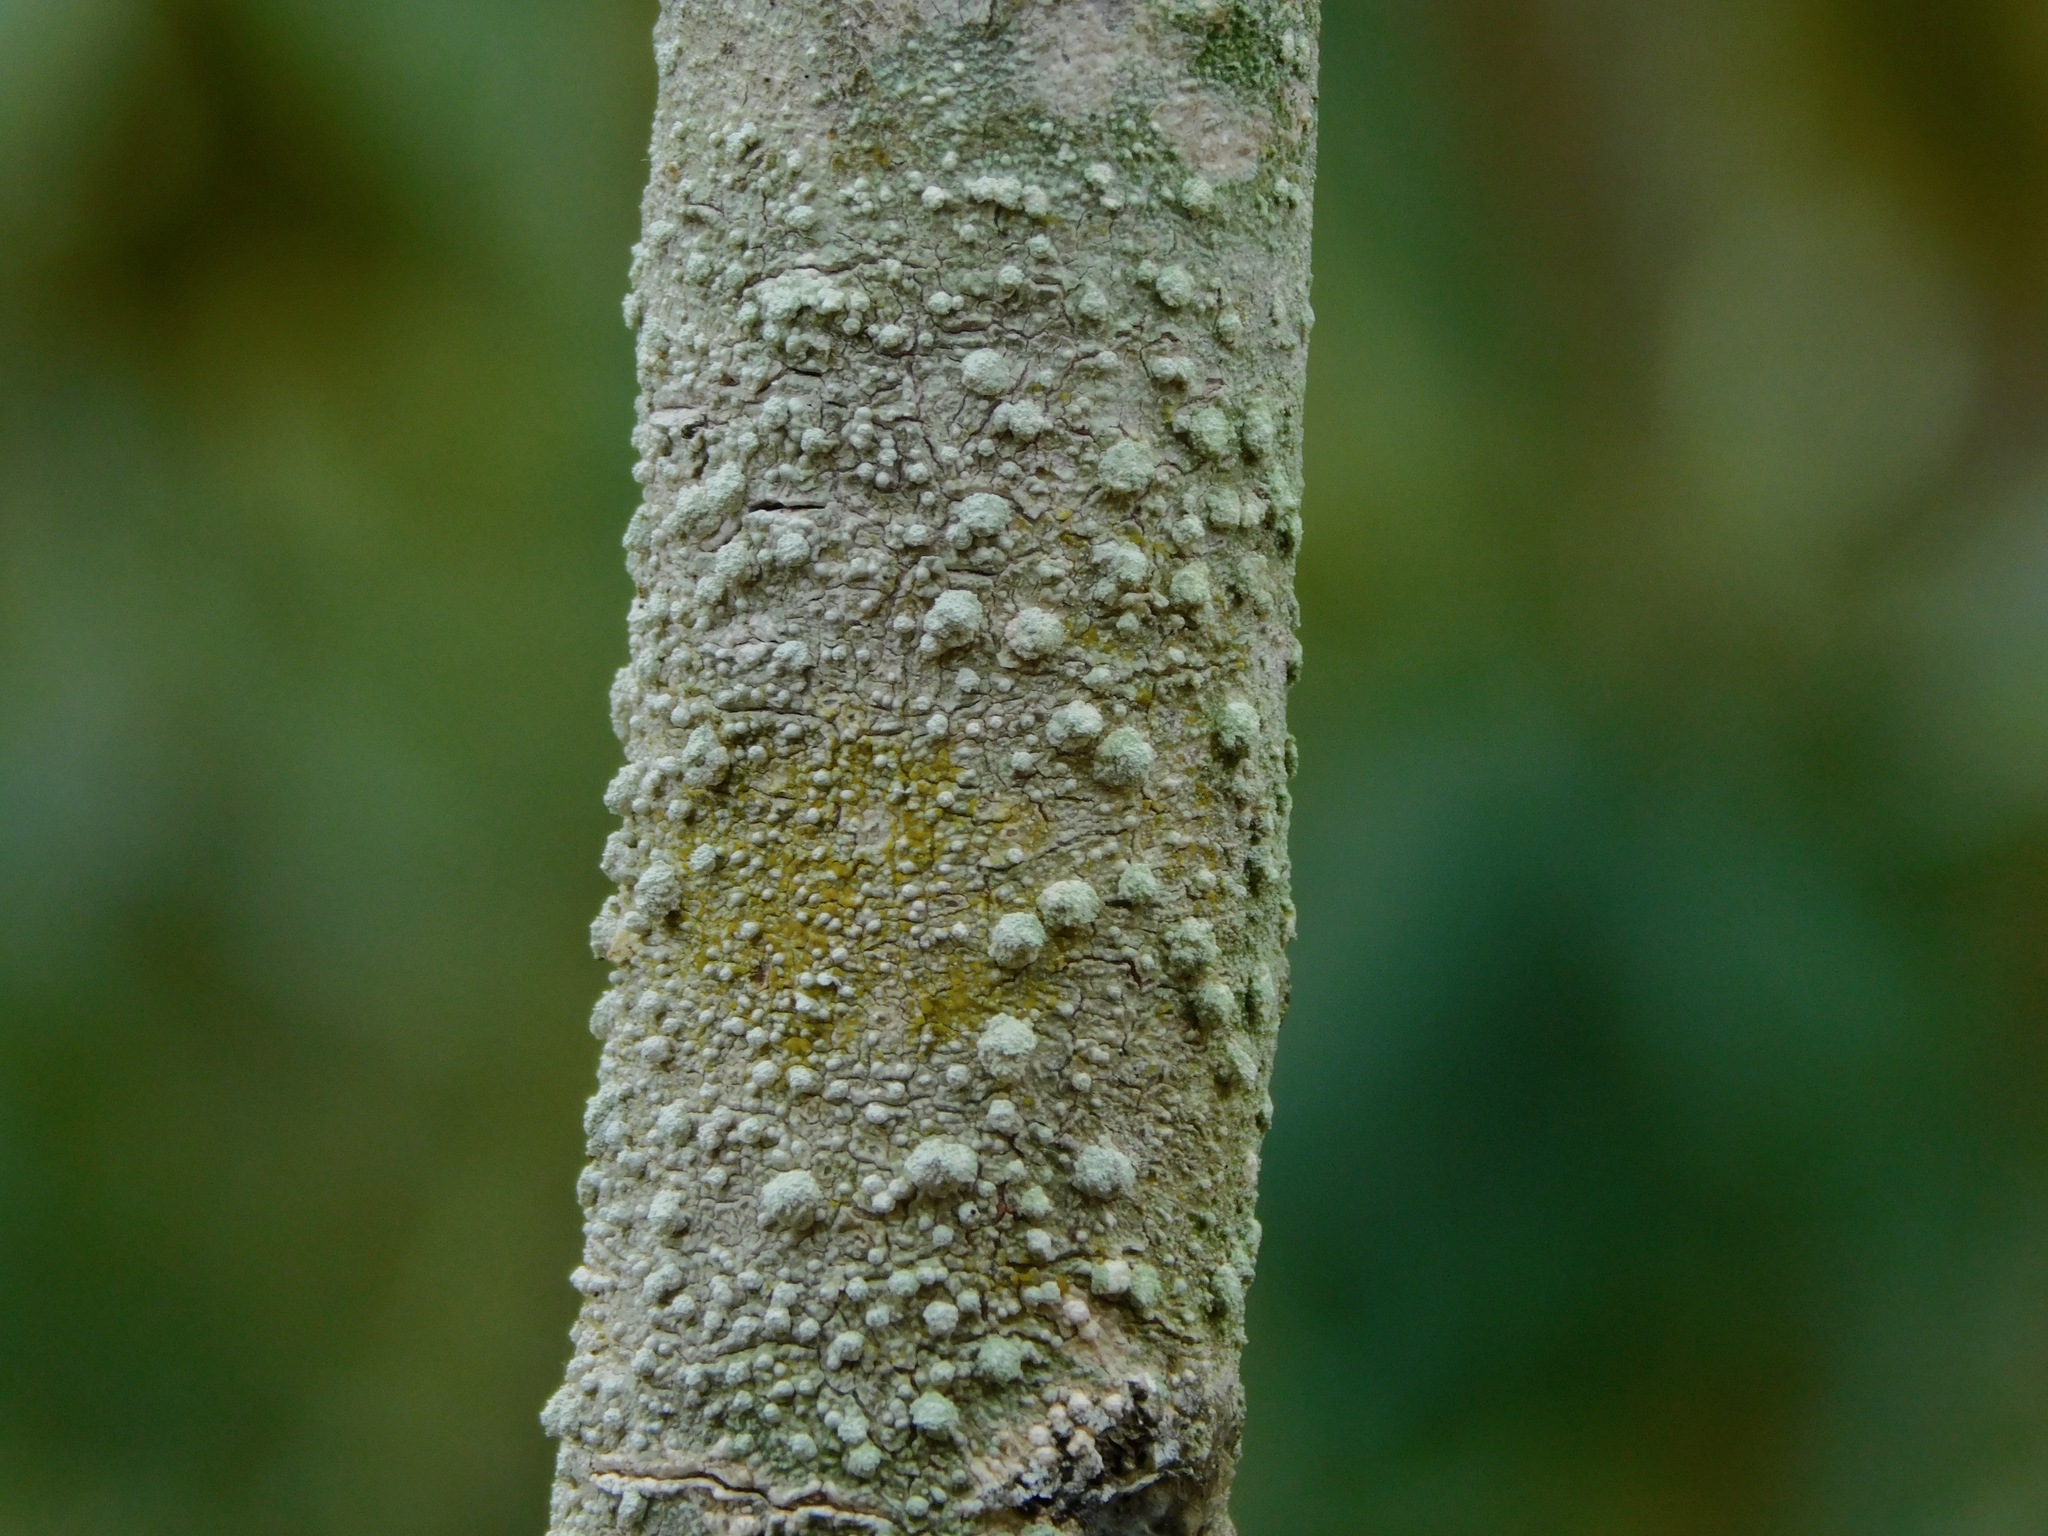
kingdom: Fungi
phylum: Ascomycota
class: Lecanoromycetes
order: Pertusariales
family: Pertusariaceae
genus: Lepra
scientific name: Lepra amara
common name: Bitter wart lichen
